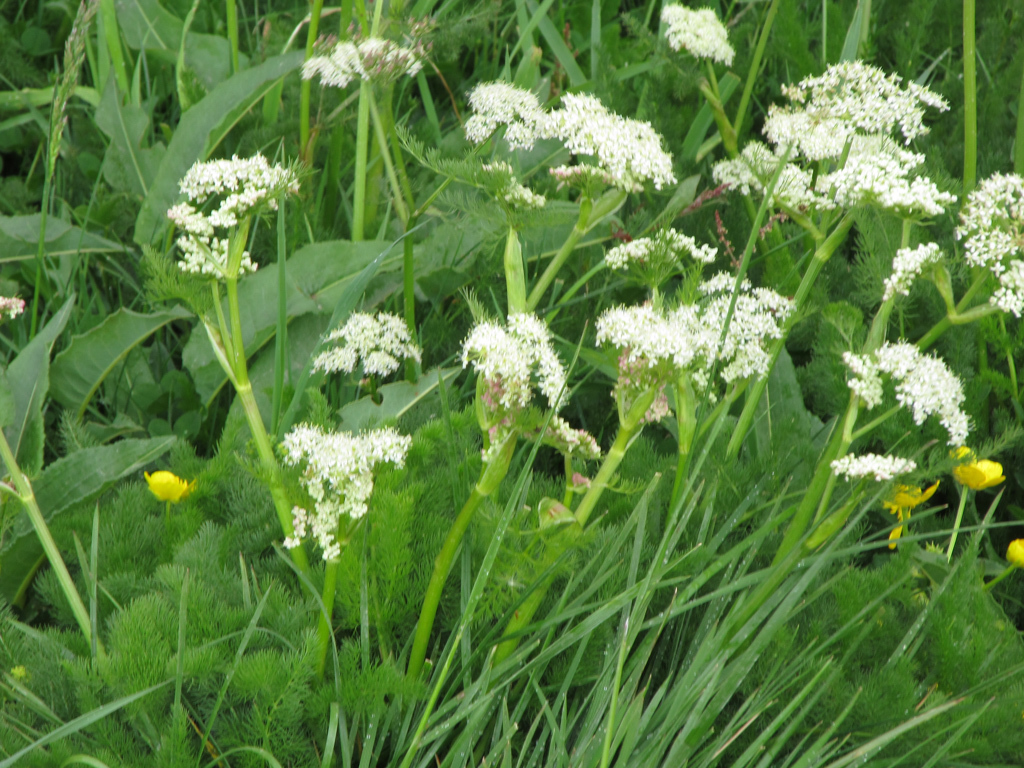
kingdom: Plantae
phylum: Tracheophyta
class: Magnoliopsida
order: Apiales
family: Apiaceae
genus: Meum
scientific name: Meum athamanticum
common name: Spignel
